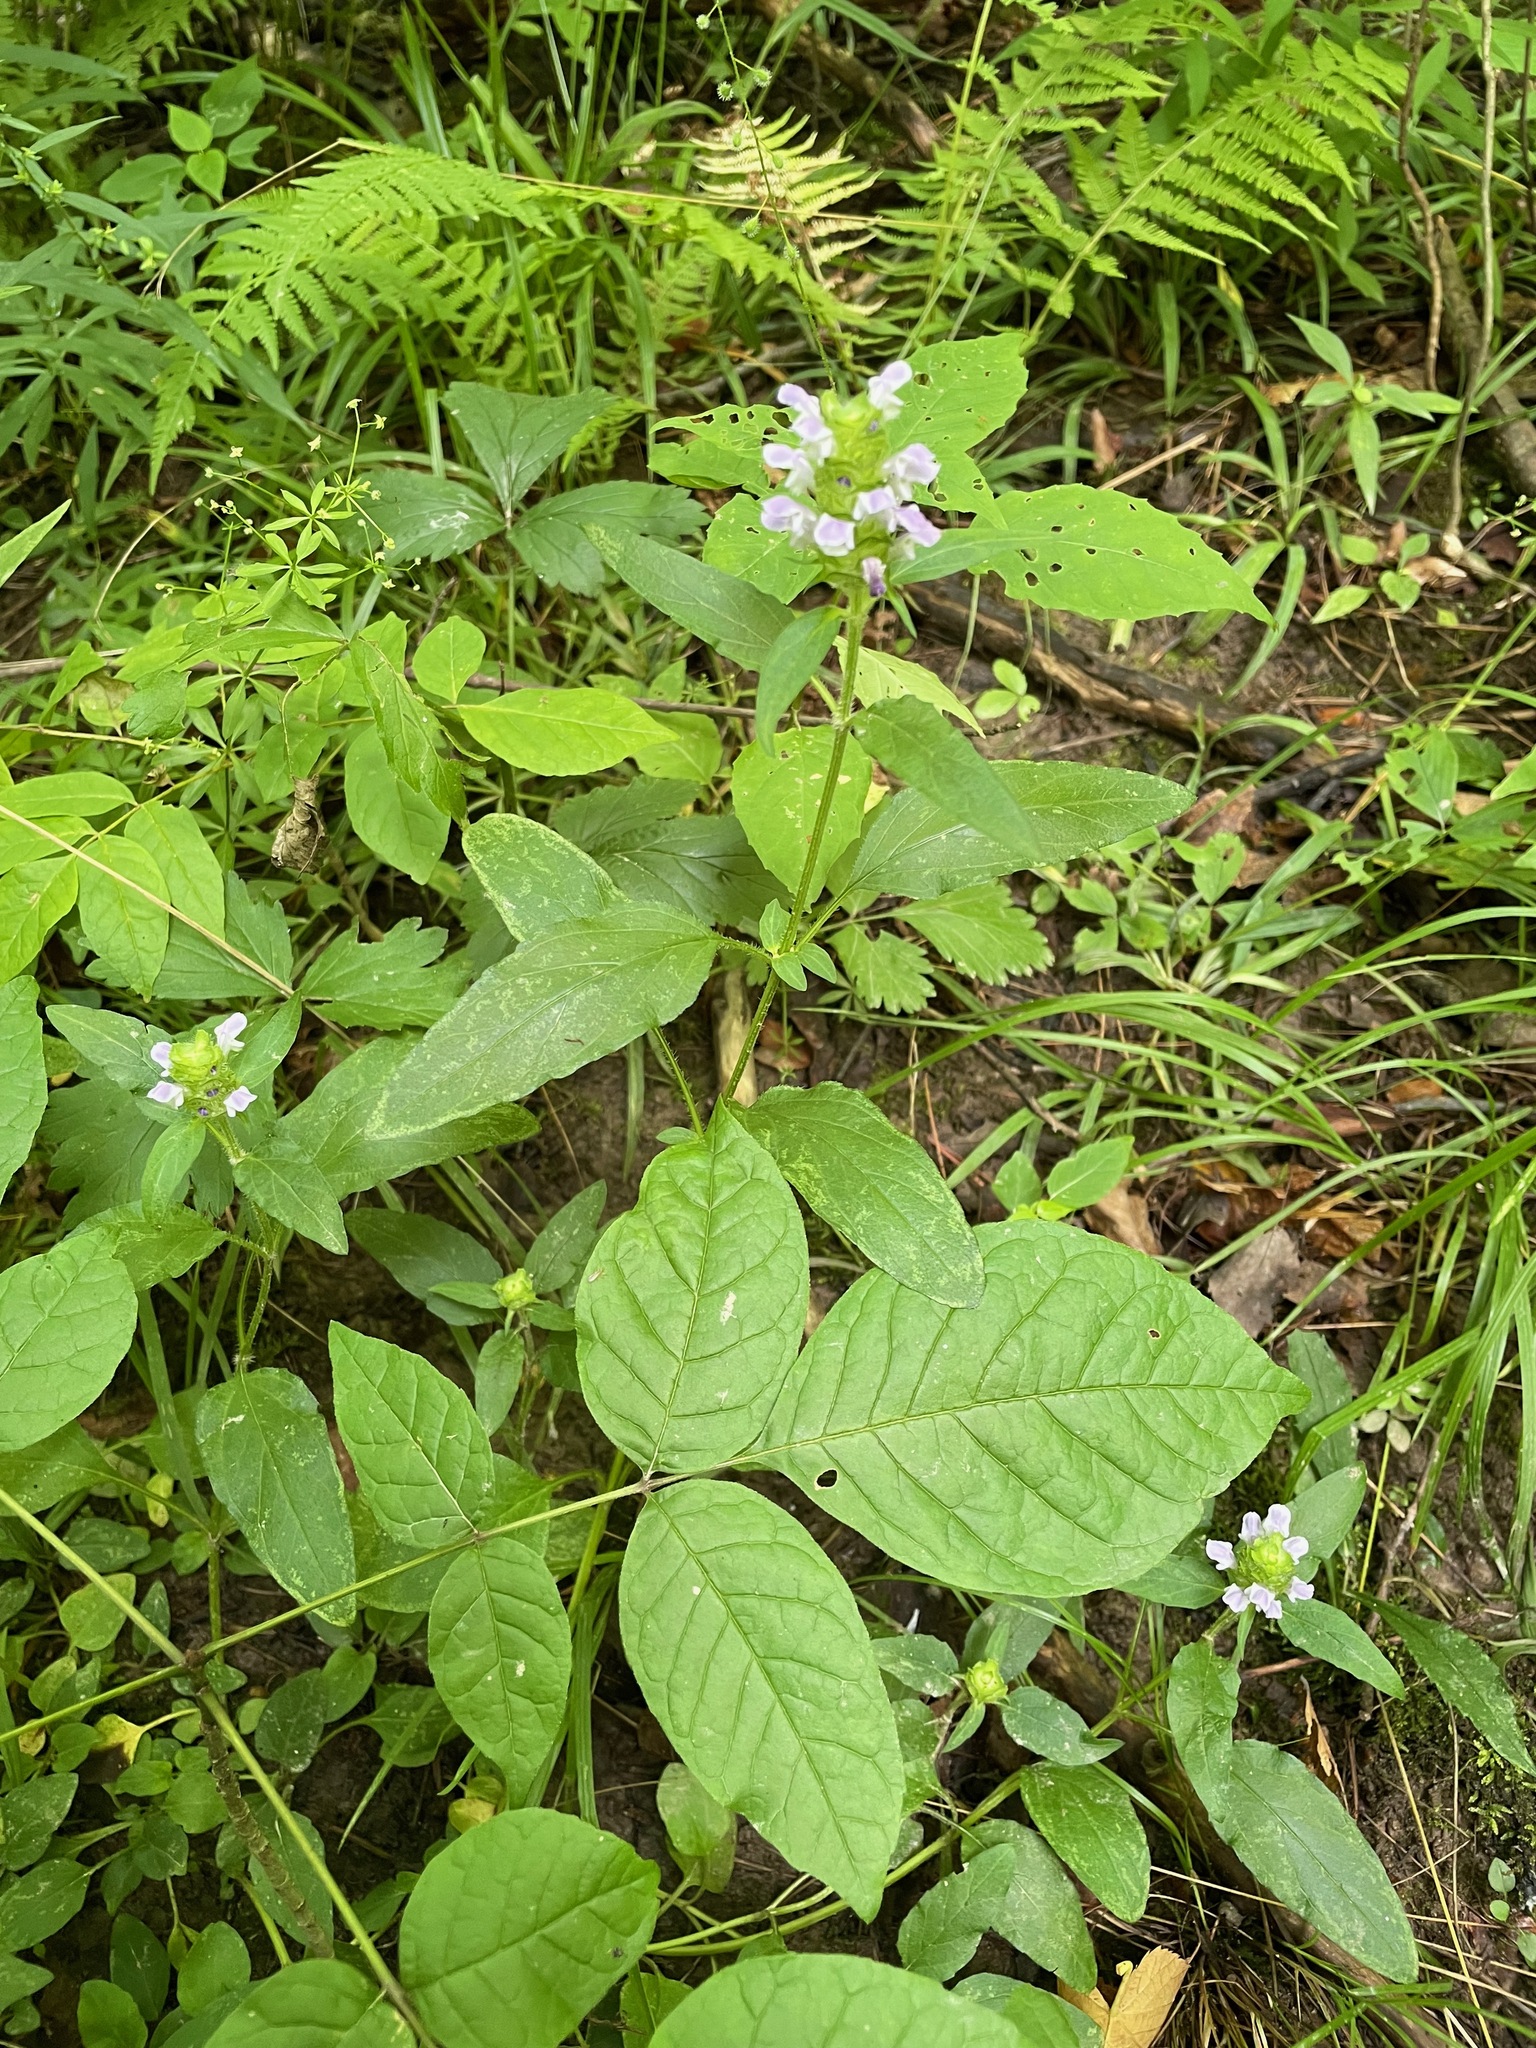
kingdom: Plantae
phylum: Tracheophyta
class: Magnoliopsida
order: Lamiales
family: Lamiaceae
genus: Prunella
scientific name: Prunella vulgaris
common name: Heal-all
